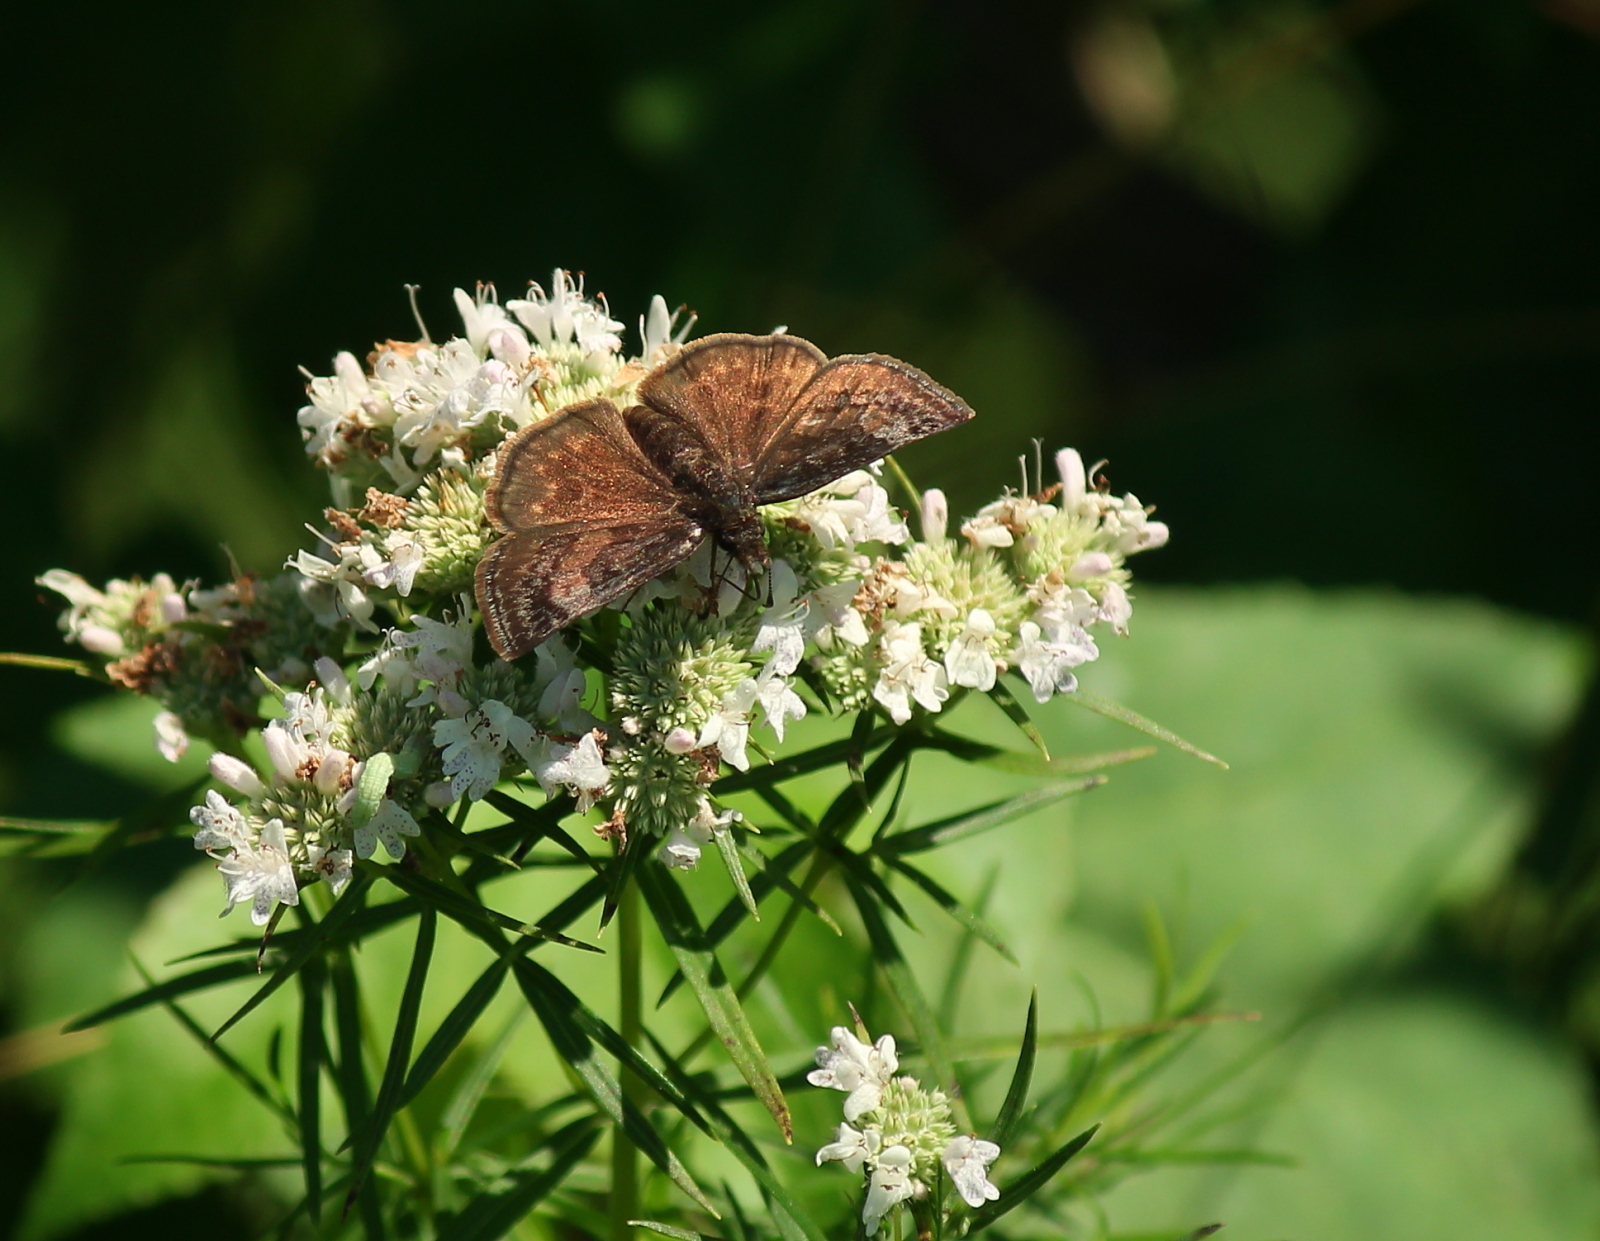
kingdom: Animalia
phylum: Arthropoda
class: Insecta
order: Lepidoptera
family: Hesperiidae
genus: Erynnis
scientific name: Erynnis icelus
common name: Dreamy duskywing
